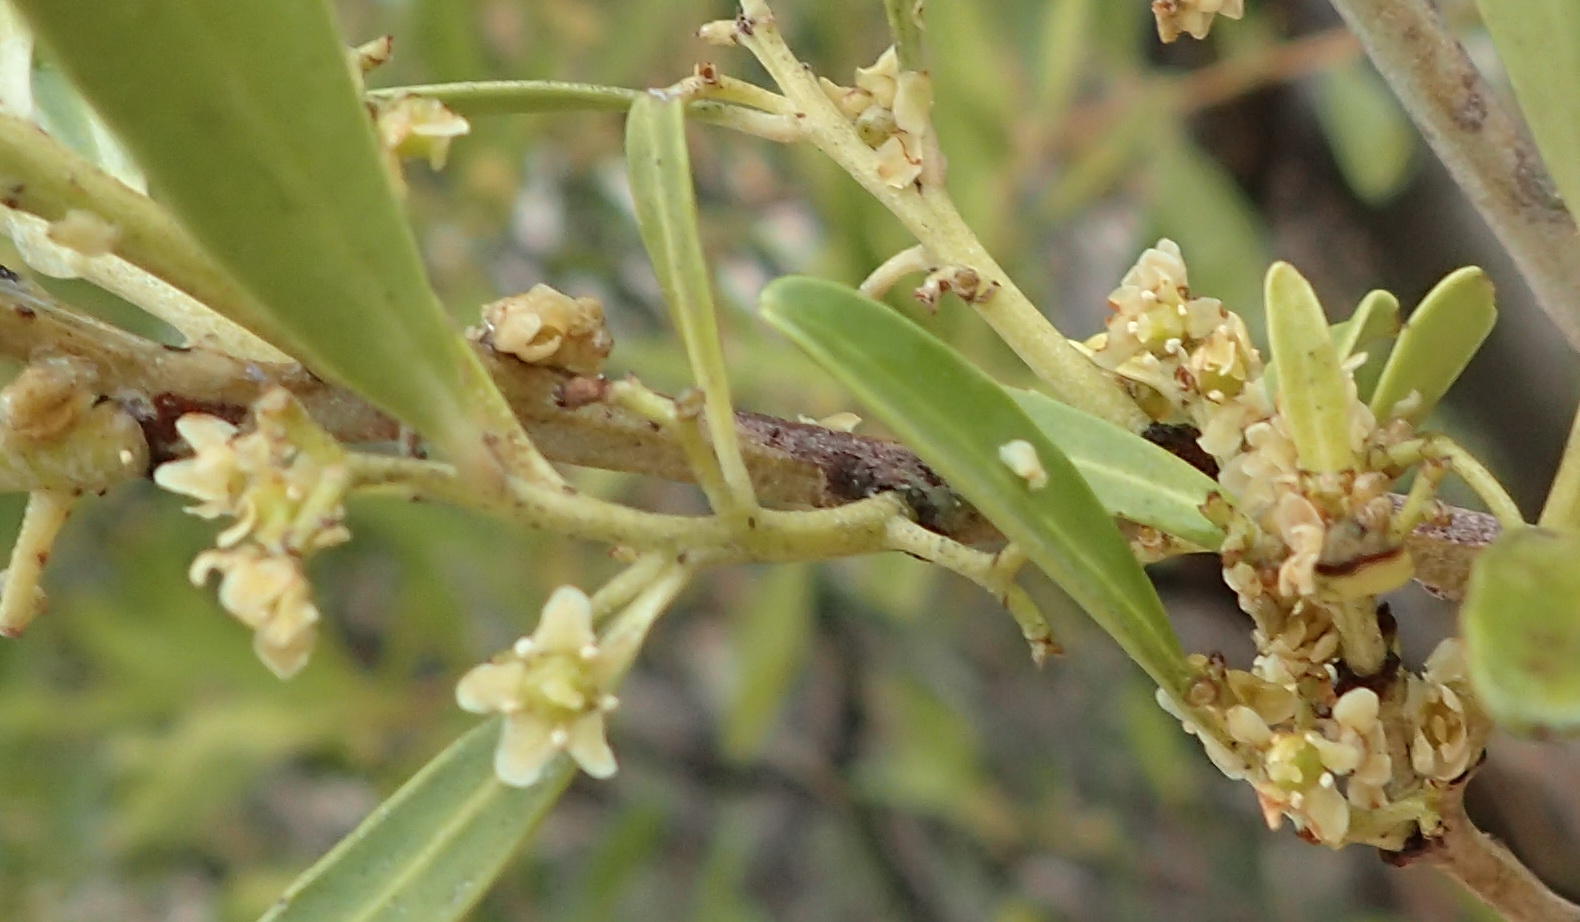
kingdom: Plantae
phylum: Tracheophyta
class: Magnoliopsida
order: Celastrales
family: Celastraceae
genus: Gymnosporia
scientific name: Gymnosporia laurina
